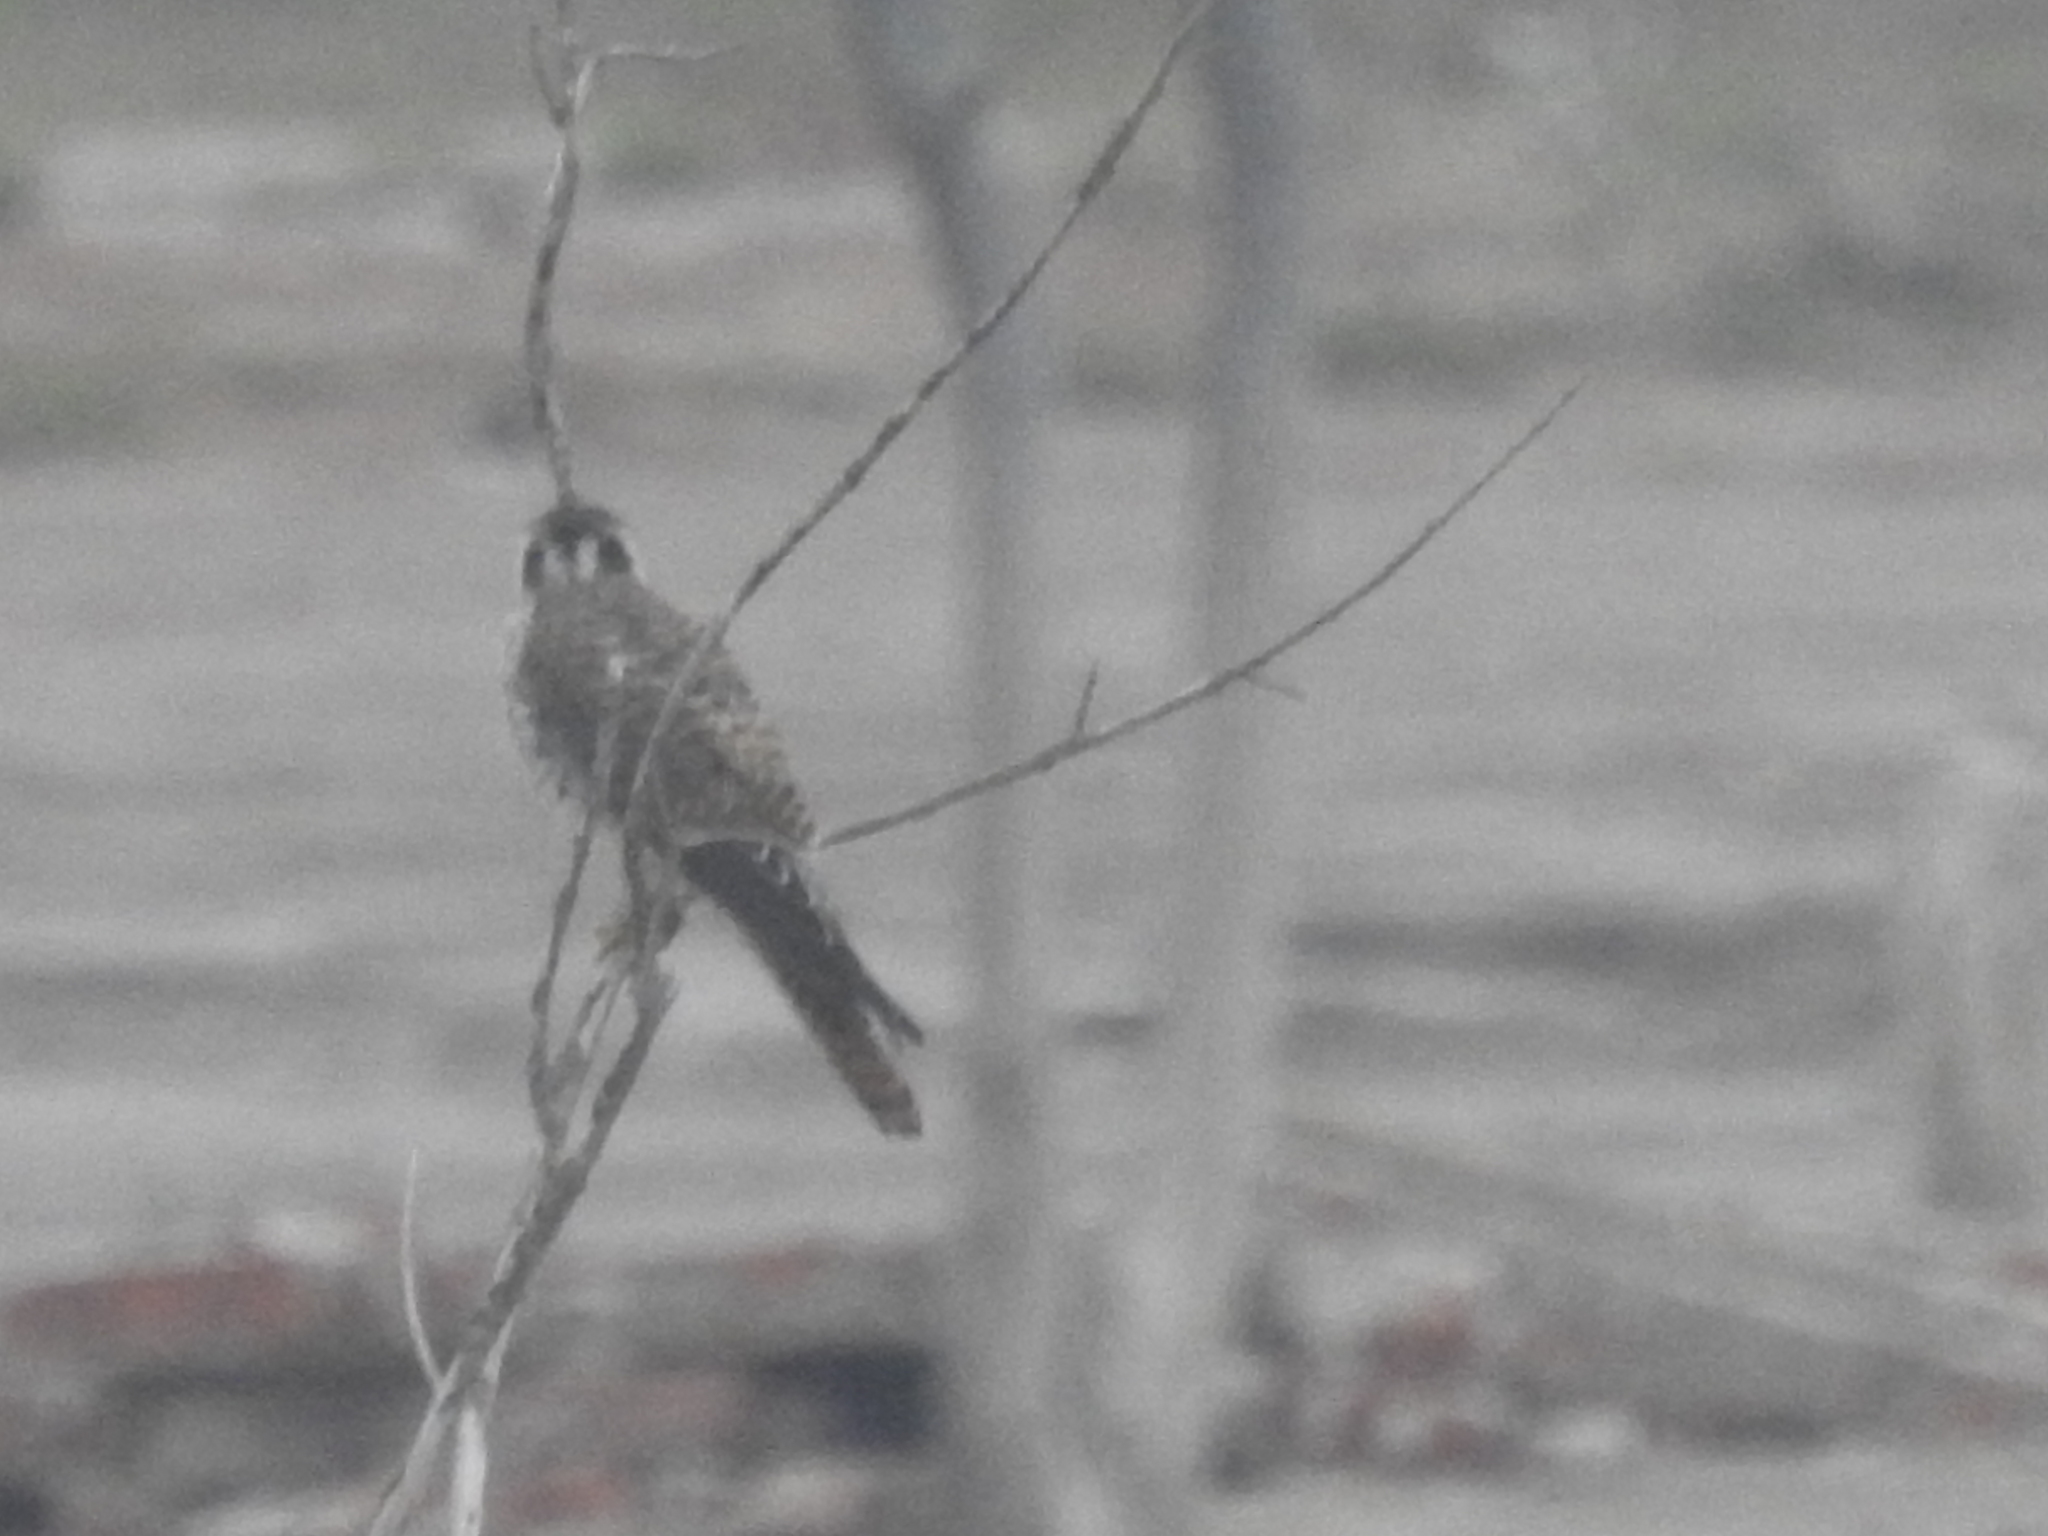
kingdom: Animalia
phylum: Chordata
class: Aves
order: Falconiformes
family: Falconidae
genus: Falco
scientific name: Falco sparverius
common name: American kestrel
